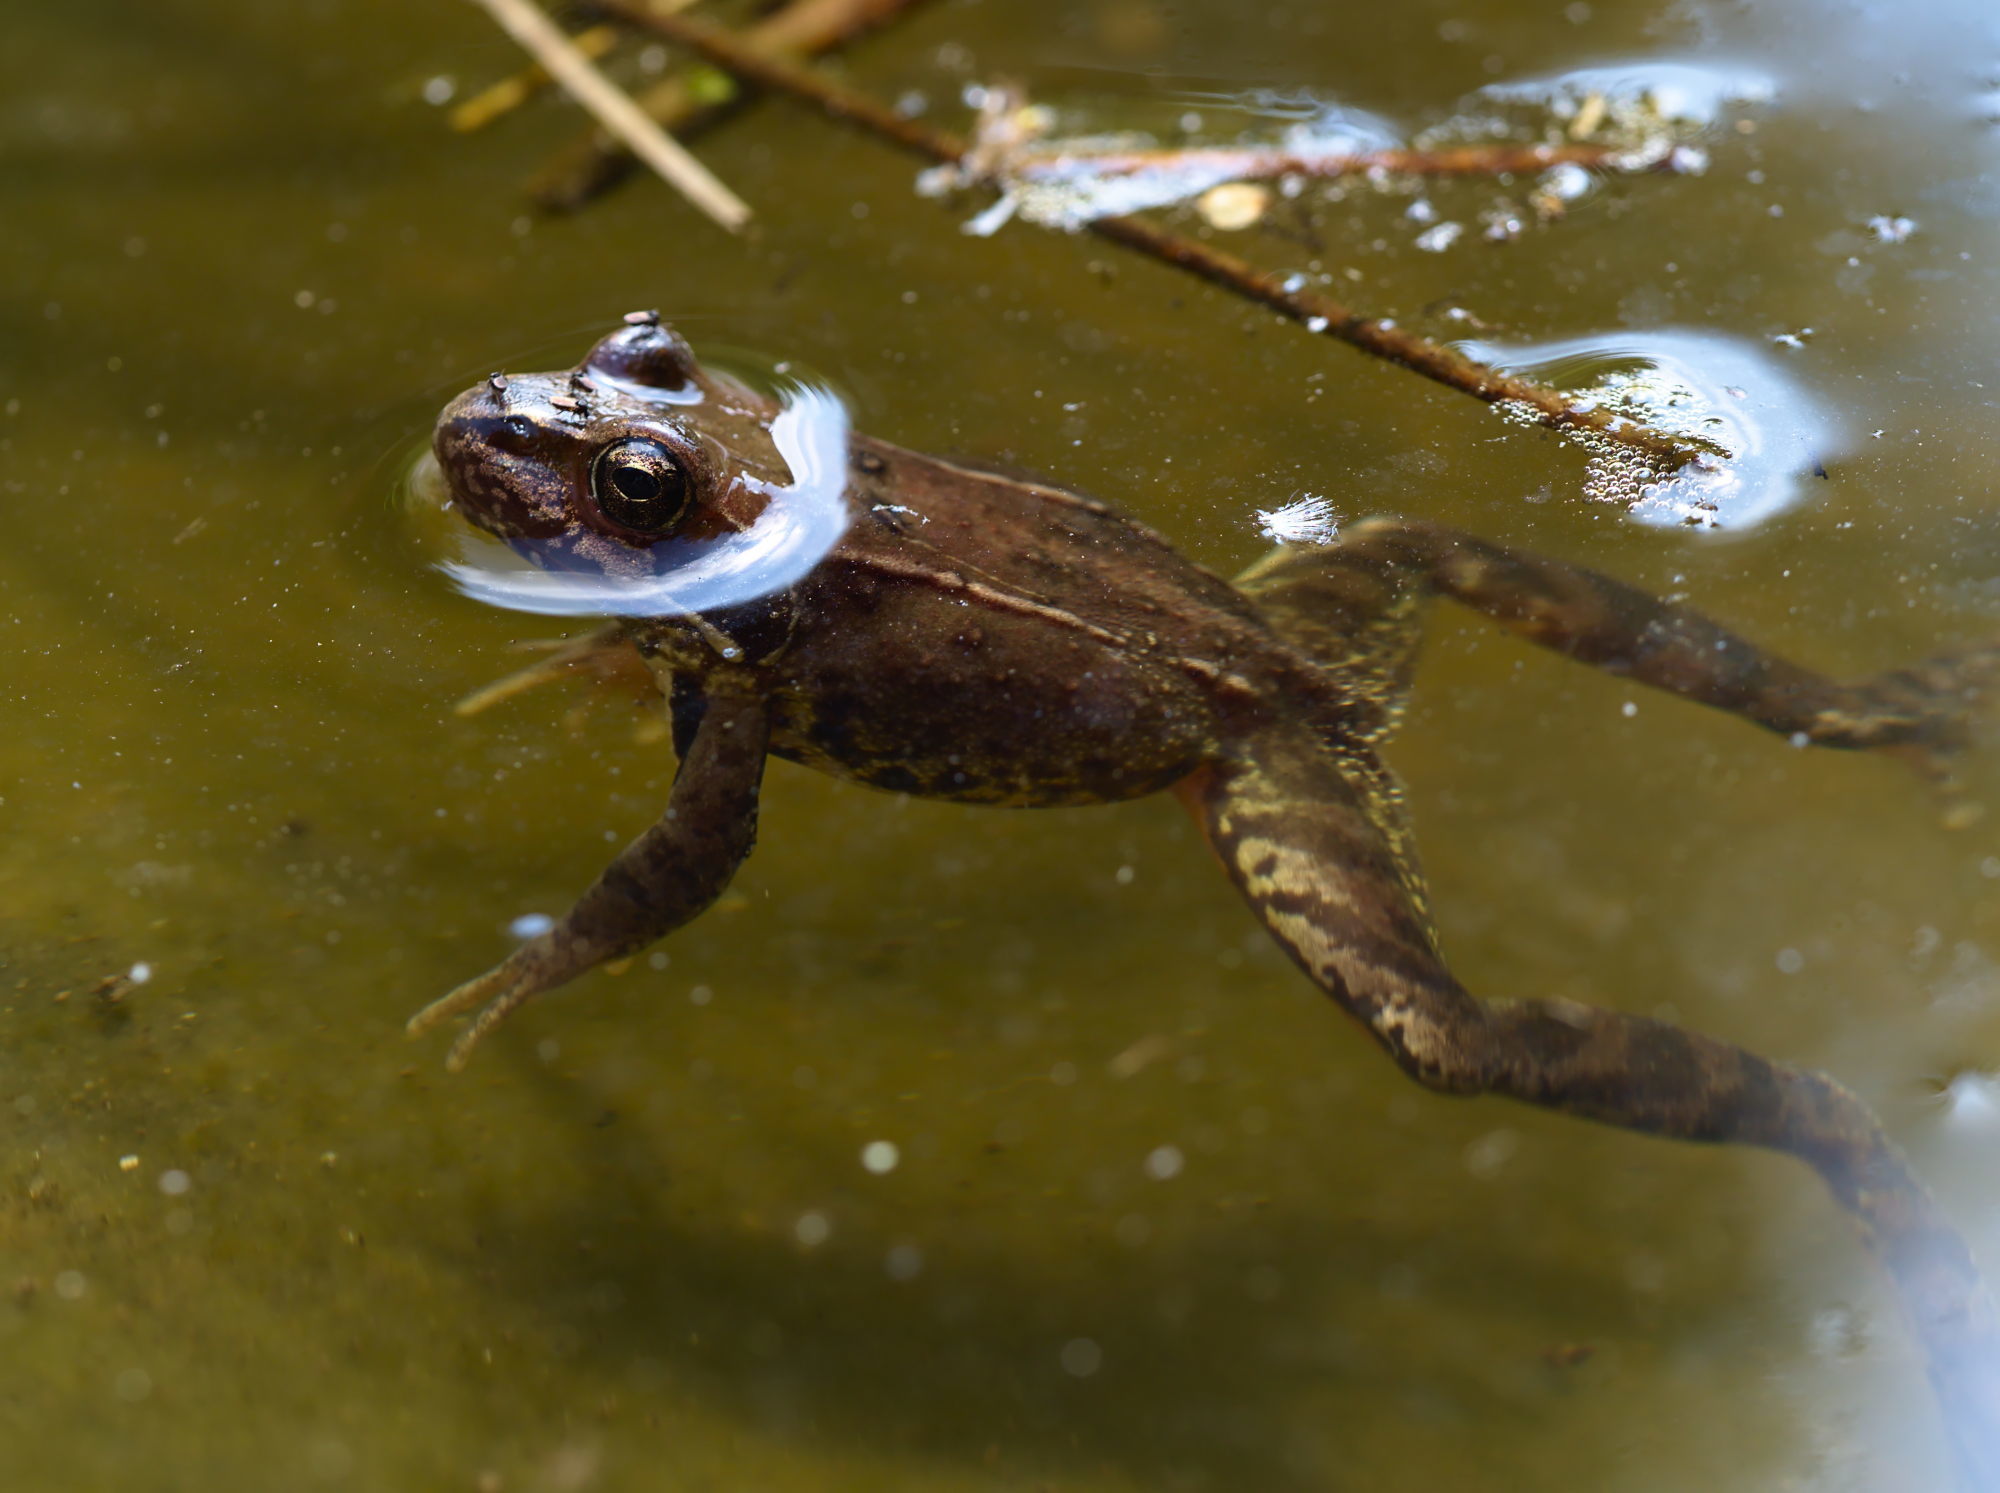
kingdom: Animalia
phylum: Chordata
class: Amphibia
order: Anura
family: Ranidae
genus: Rana
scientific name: Rana temporaria
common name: Common frog
